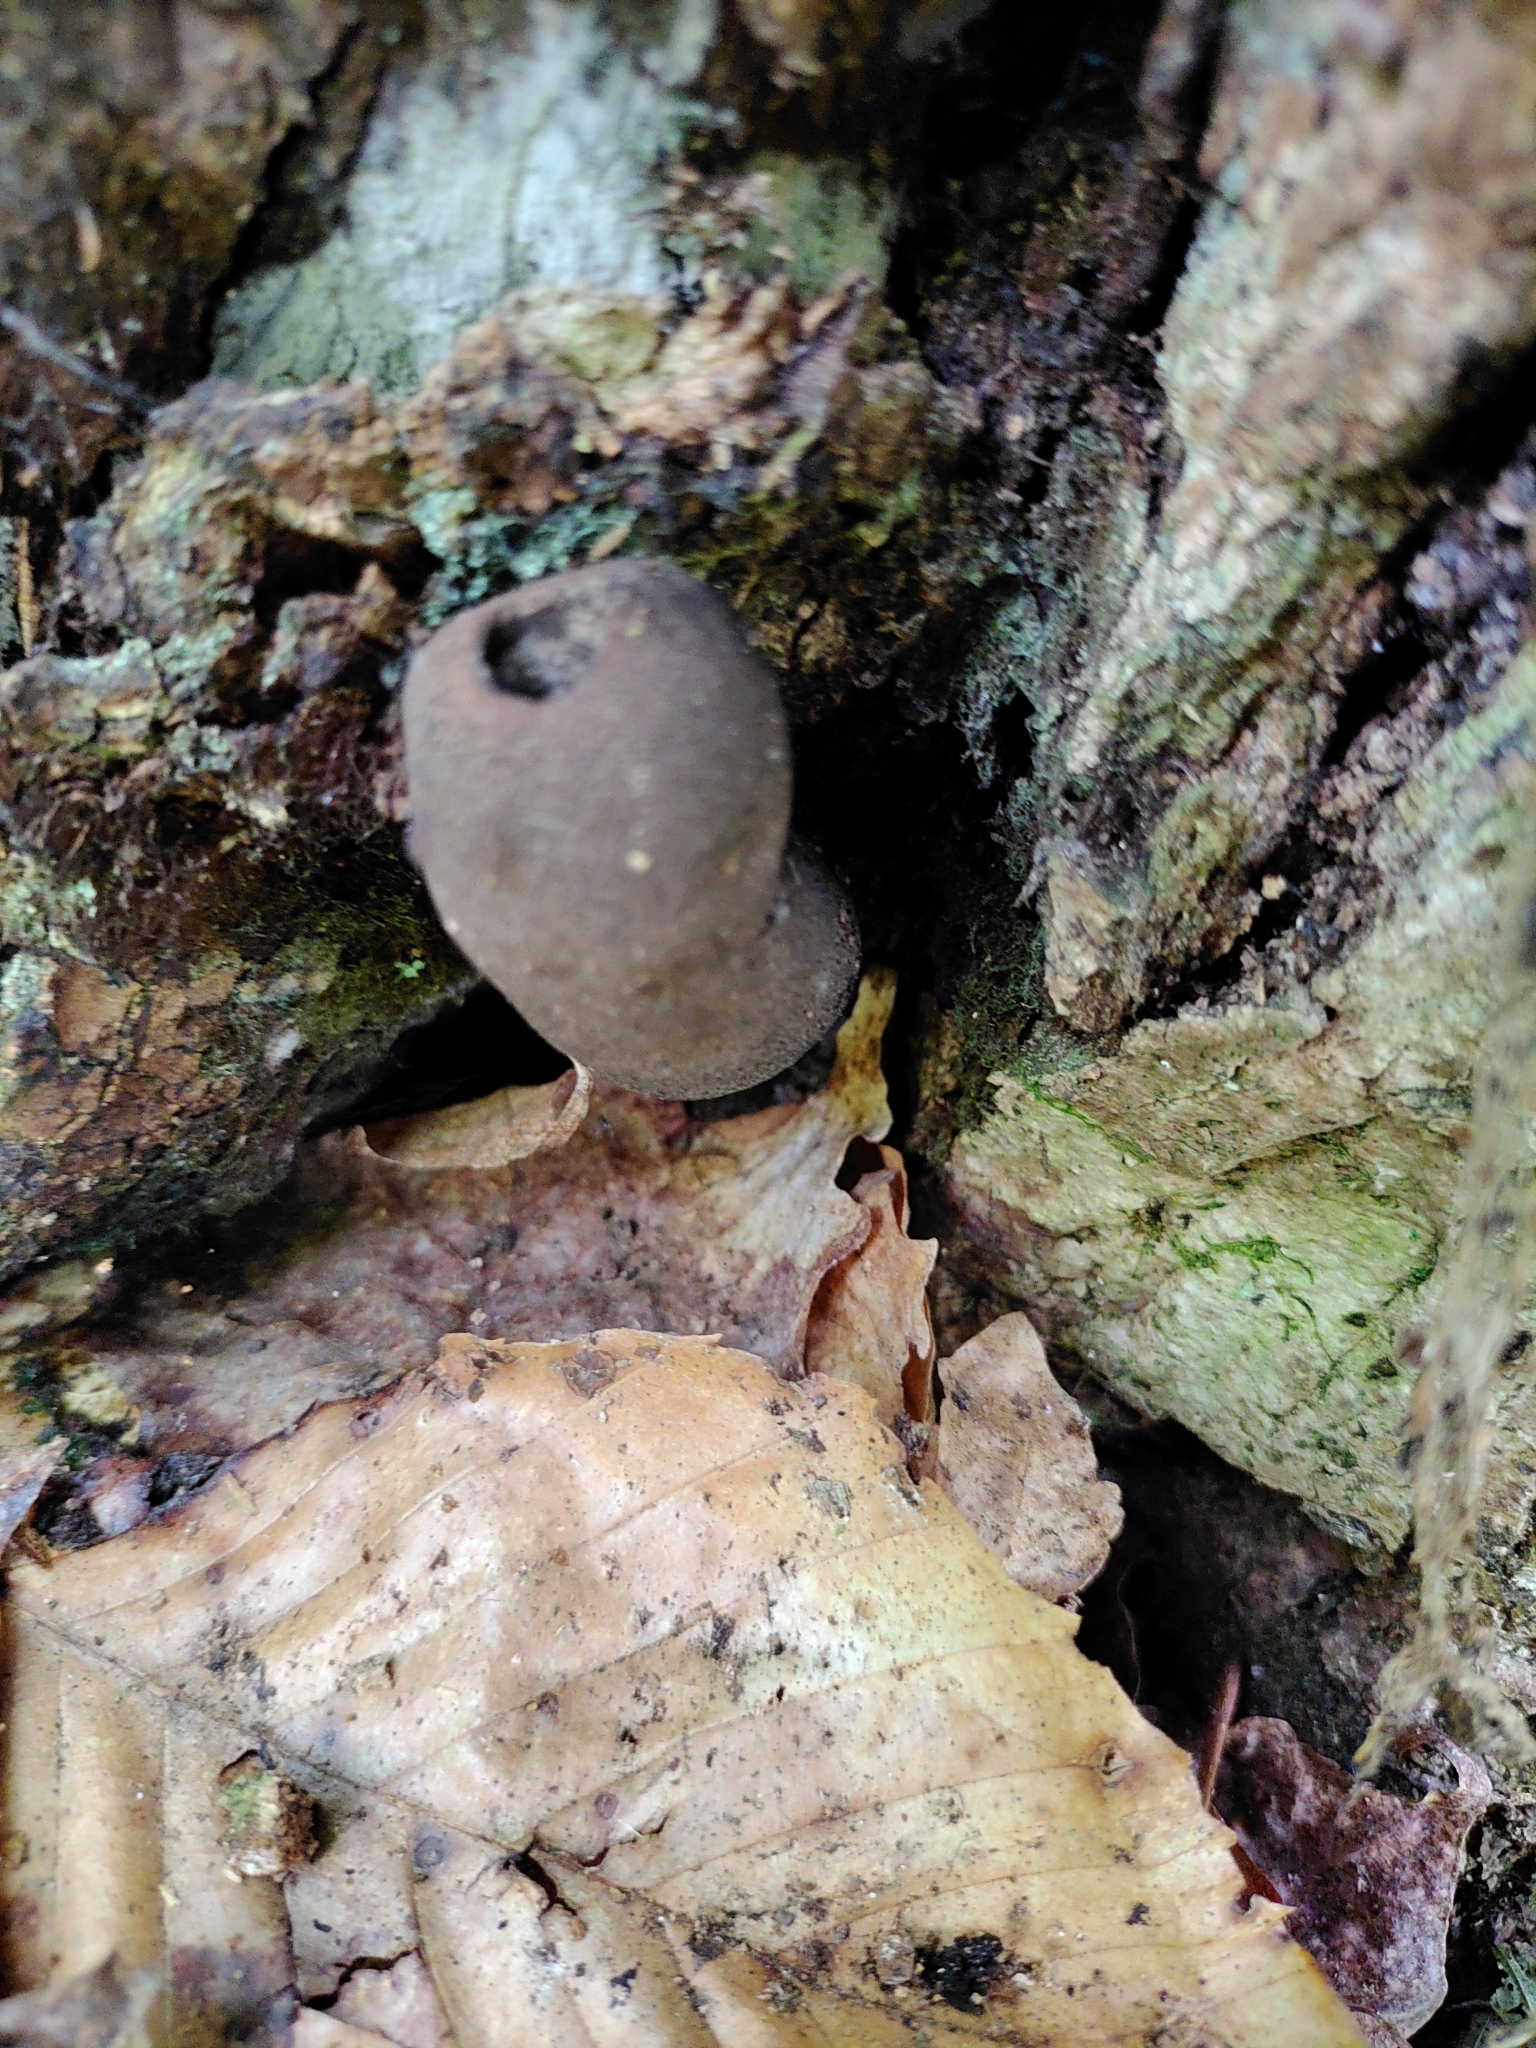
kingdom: Fungi
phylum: Ascomycota
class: Sordariomycetes
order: Xylariales
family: Xylariaceae
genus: Xylaria
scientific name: Xylaria polymorpha
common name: Dead man's fingers
